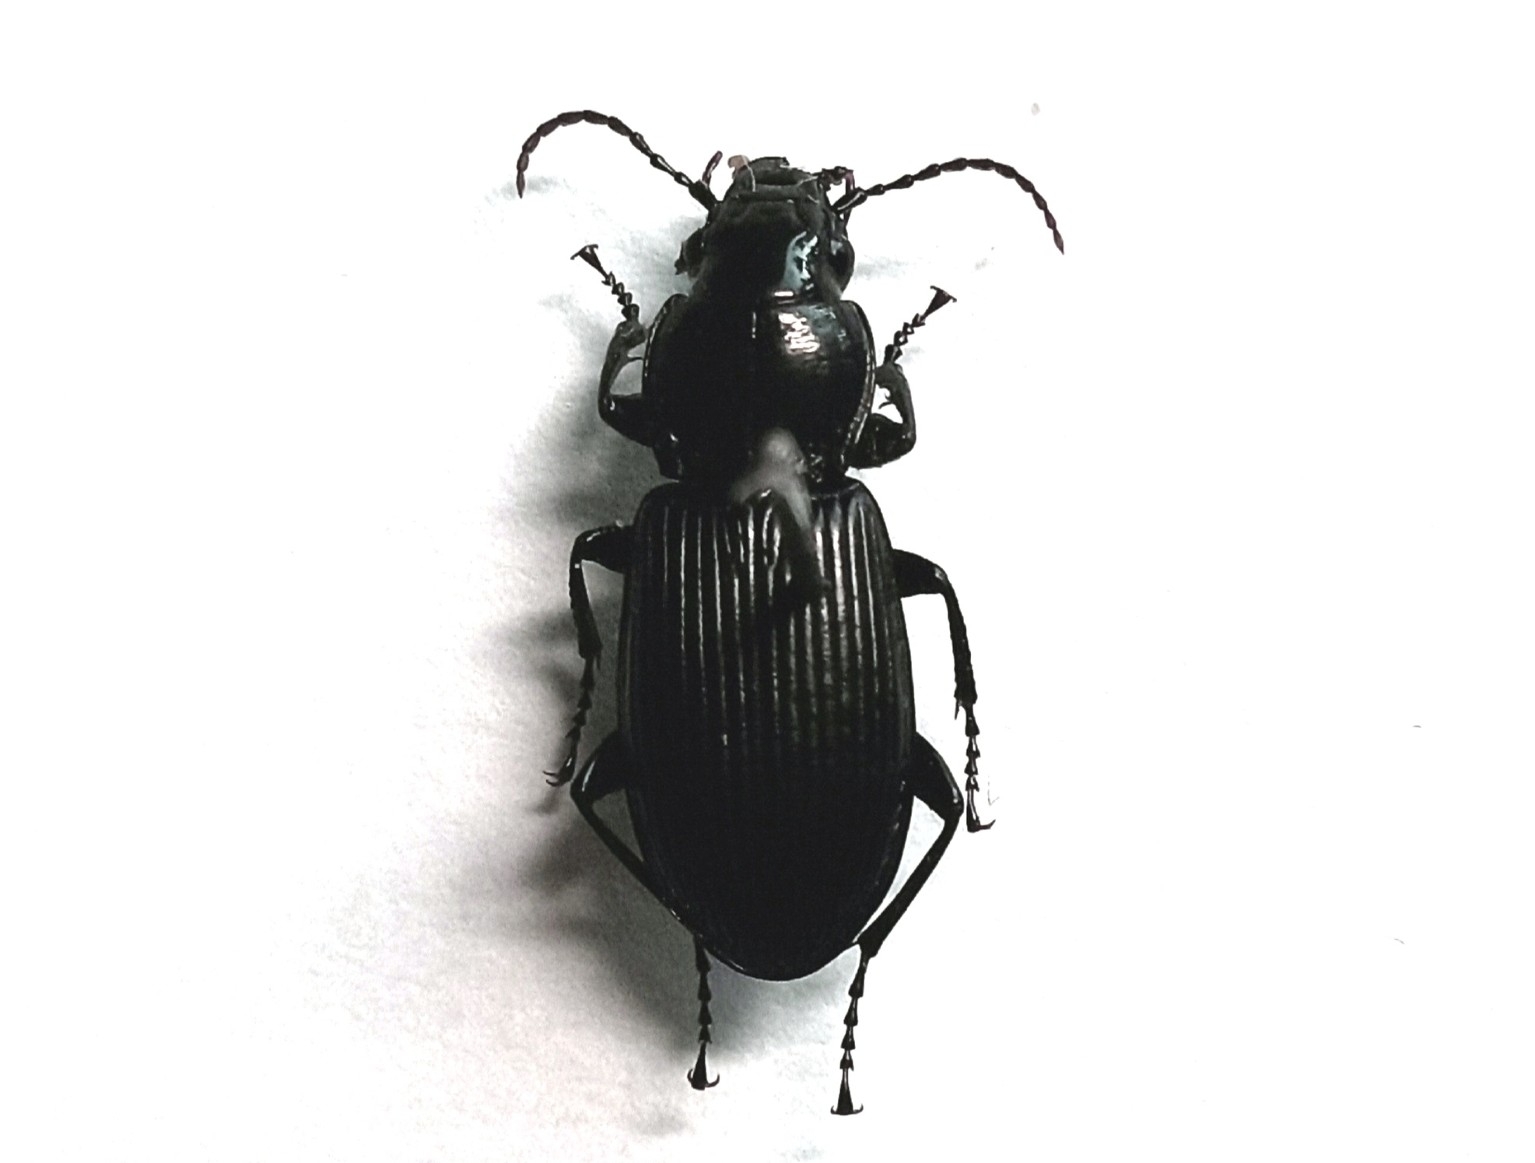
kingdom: Animalia
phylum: Arthropoda
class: Insecta
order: Coleoptera
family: Carabidae
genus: Pterostichus
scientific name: Pterostichus niger
